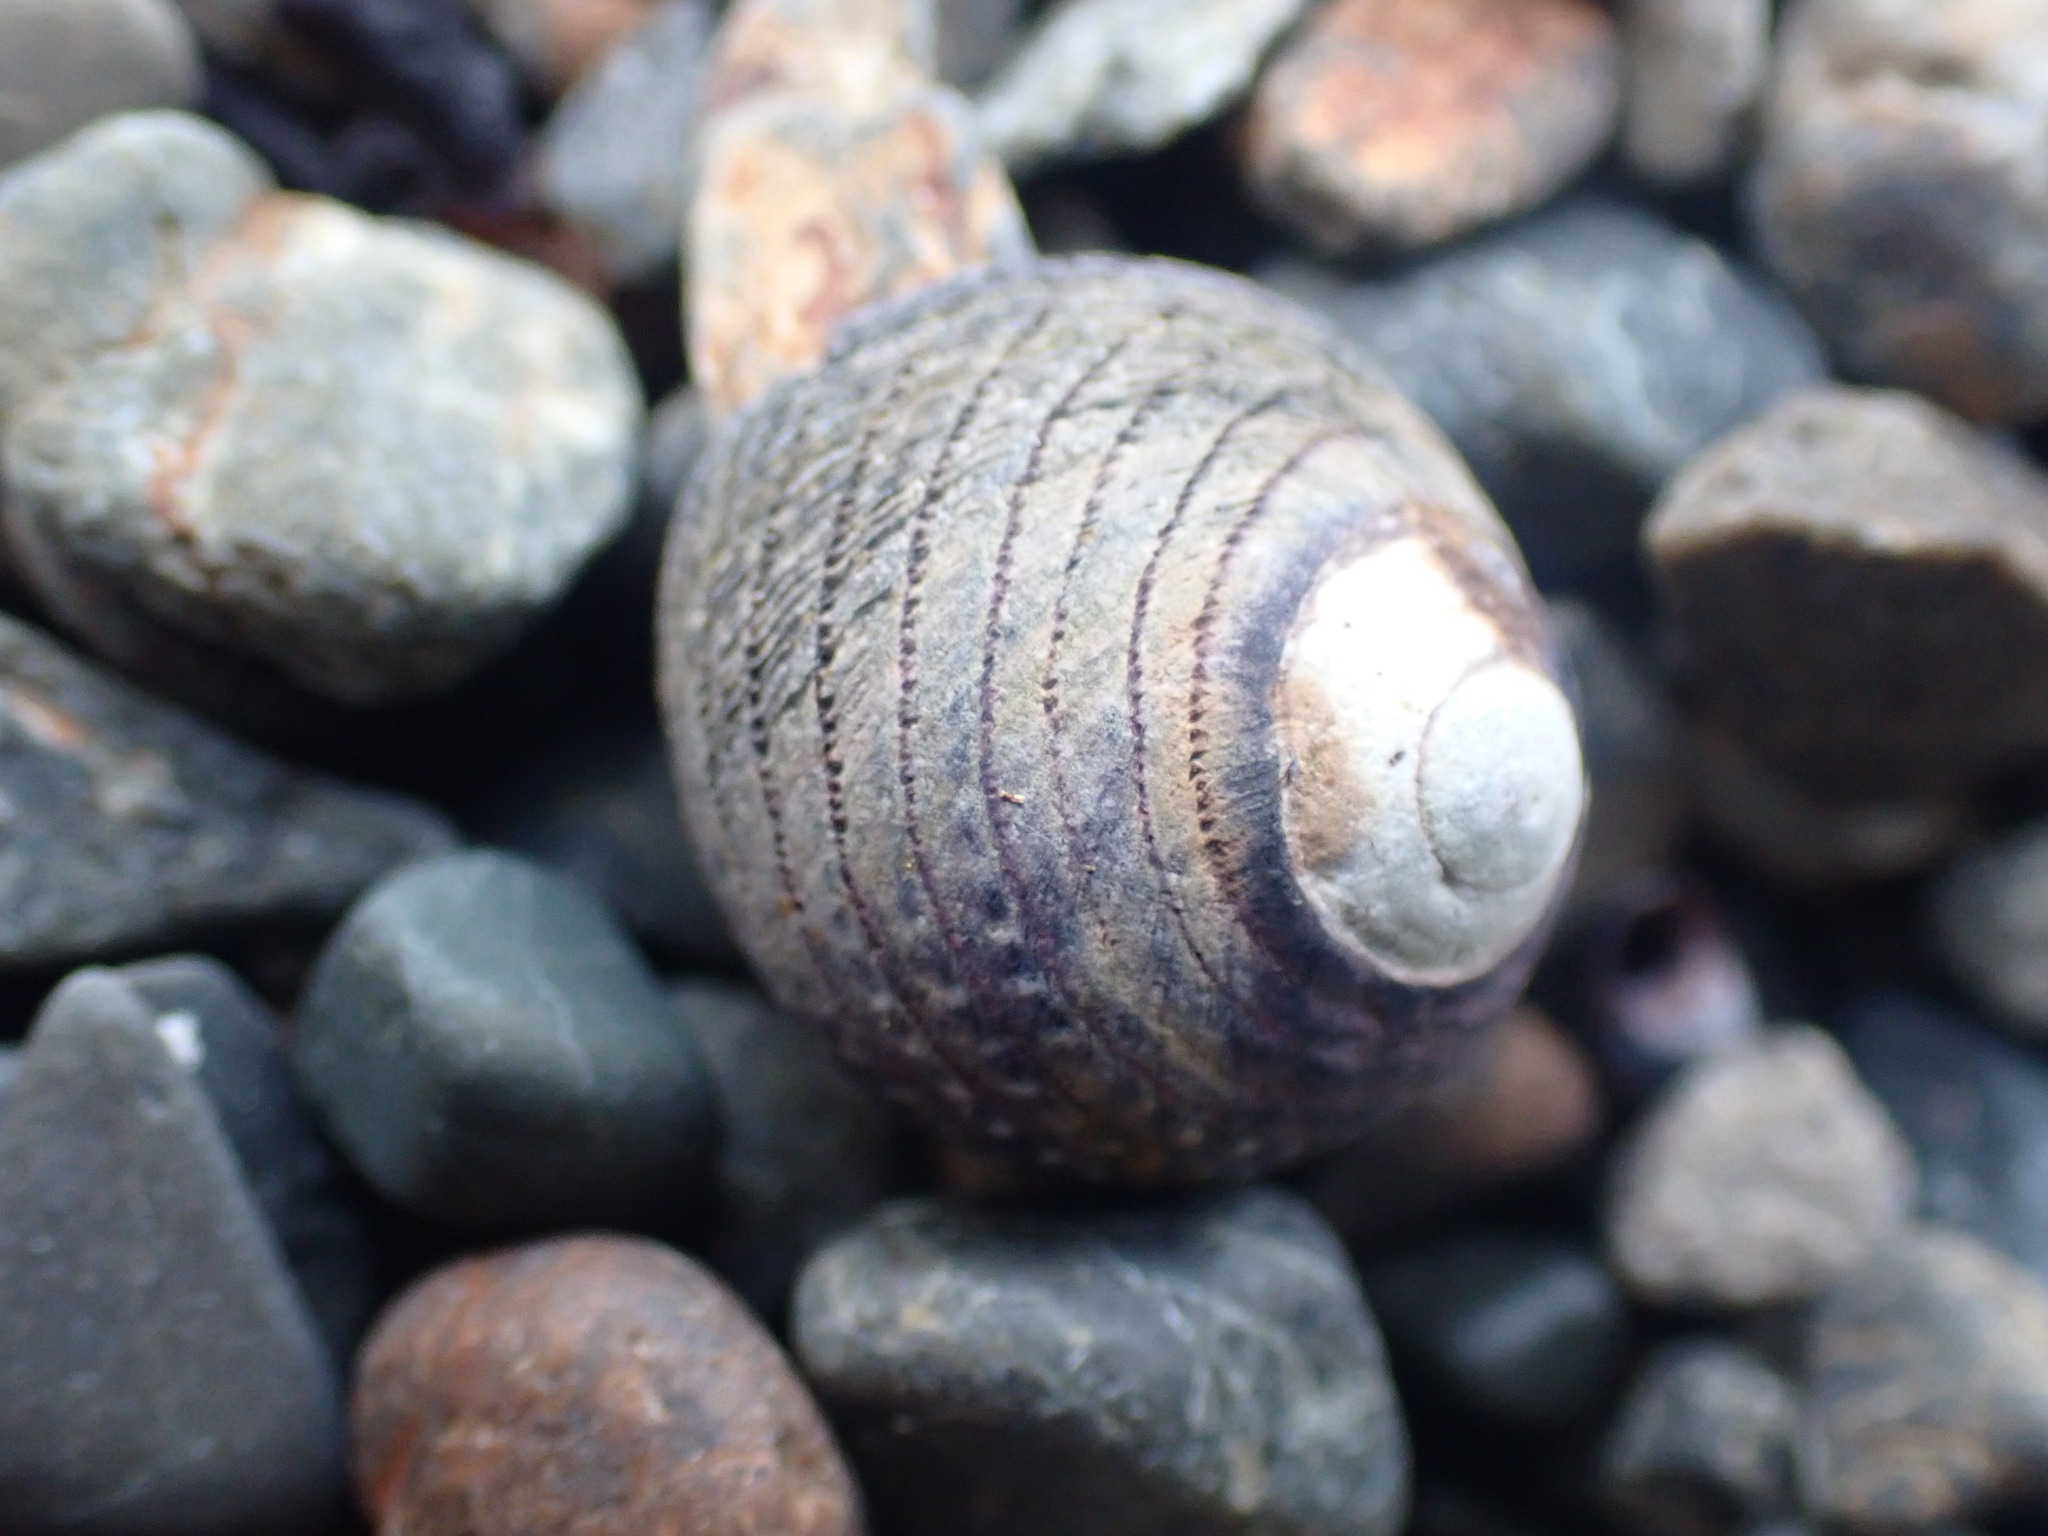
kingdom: Animalia
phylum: Mollusca
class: Gastropoda
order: Trochida
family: Trochidae
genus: Diloma
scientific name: Diloma aethiops
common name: Scorched monodont
